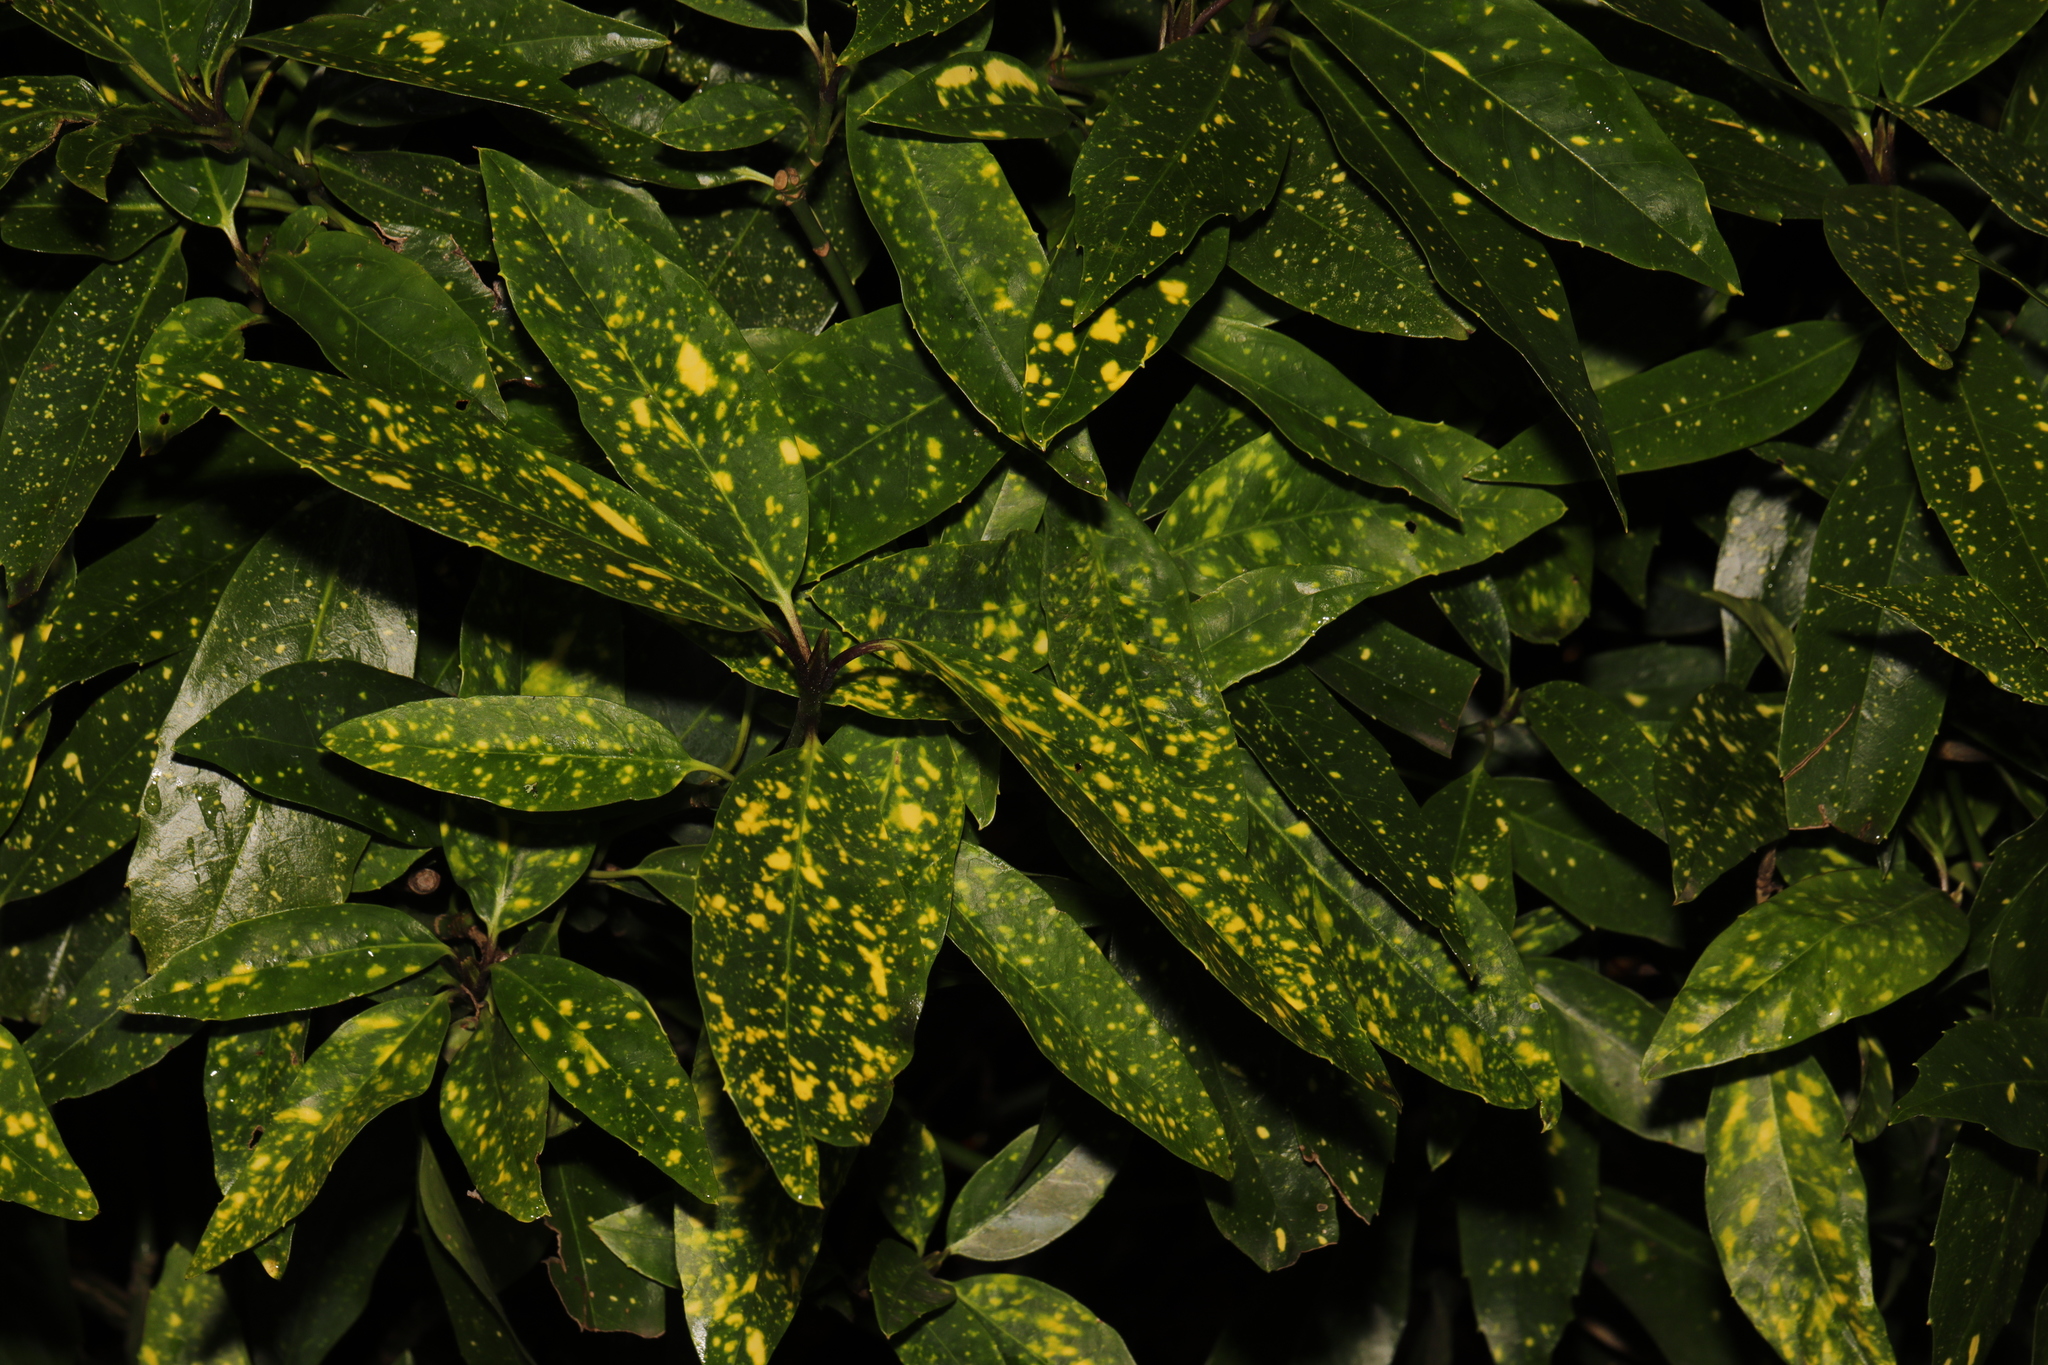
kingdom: Plantae
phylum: Tracheophyta
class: Magnoliopsida
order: Garryales
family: Garryaceae
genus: Aucuba
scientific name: Aucuba japonica
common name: Spotted-laurel
